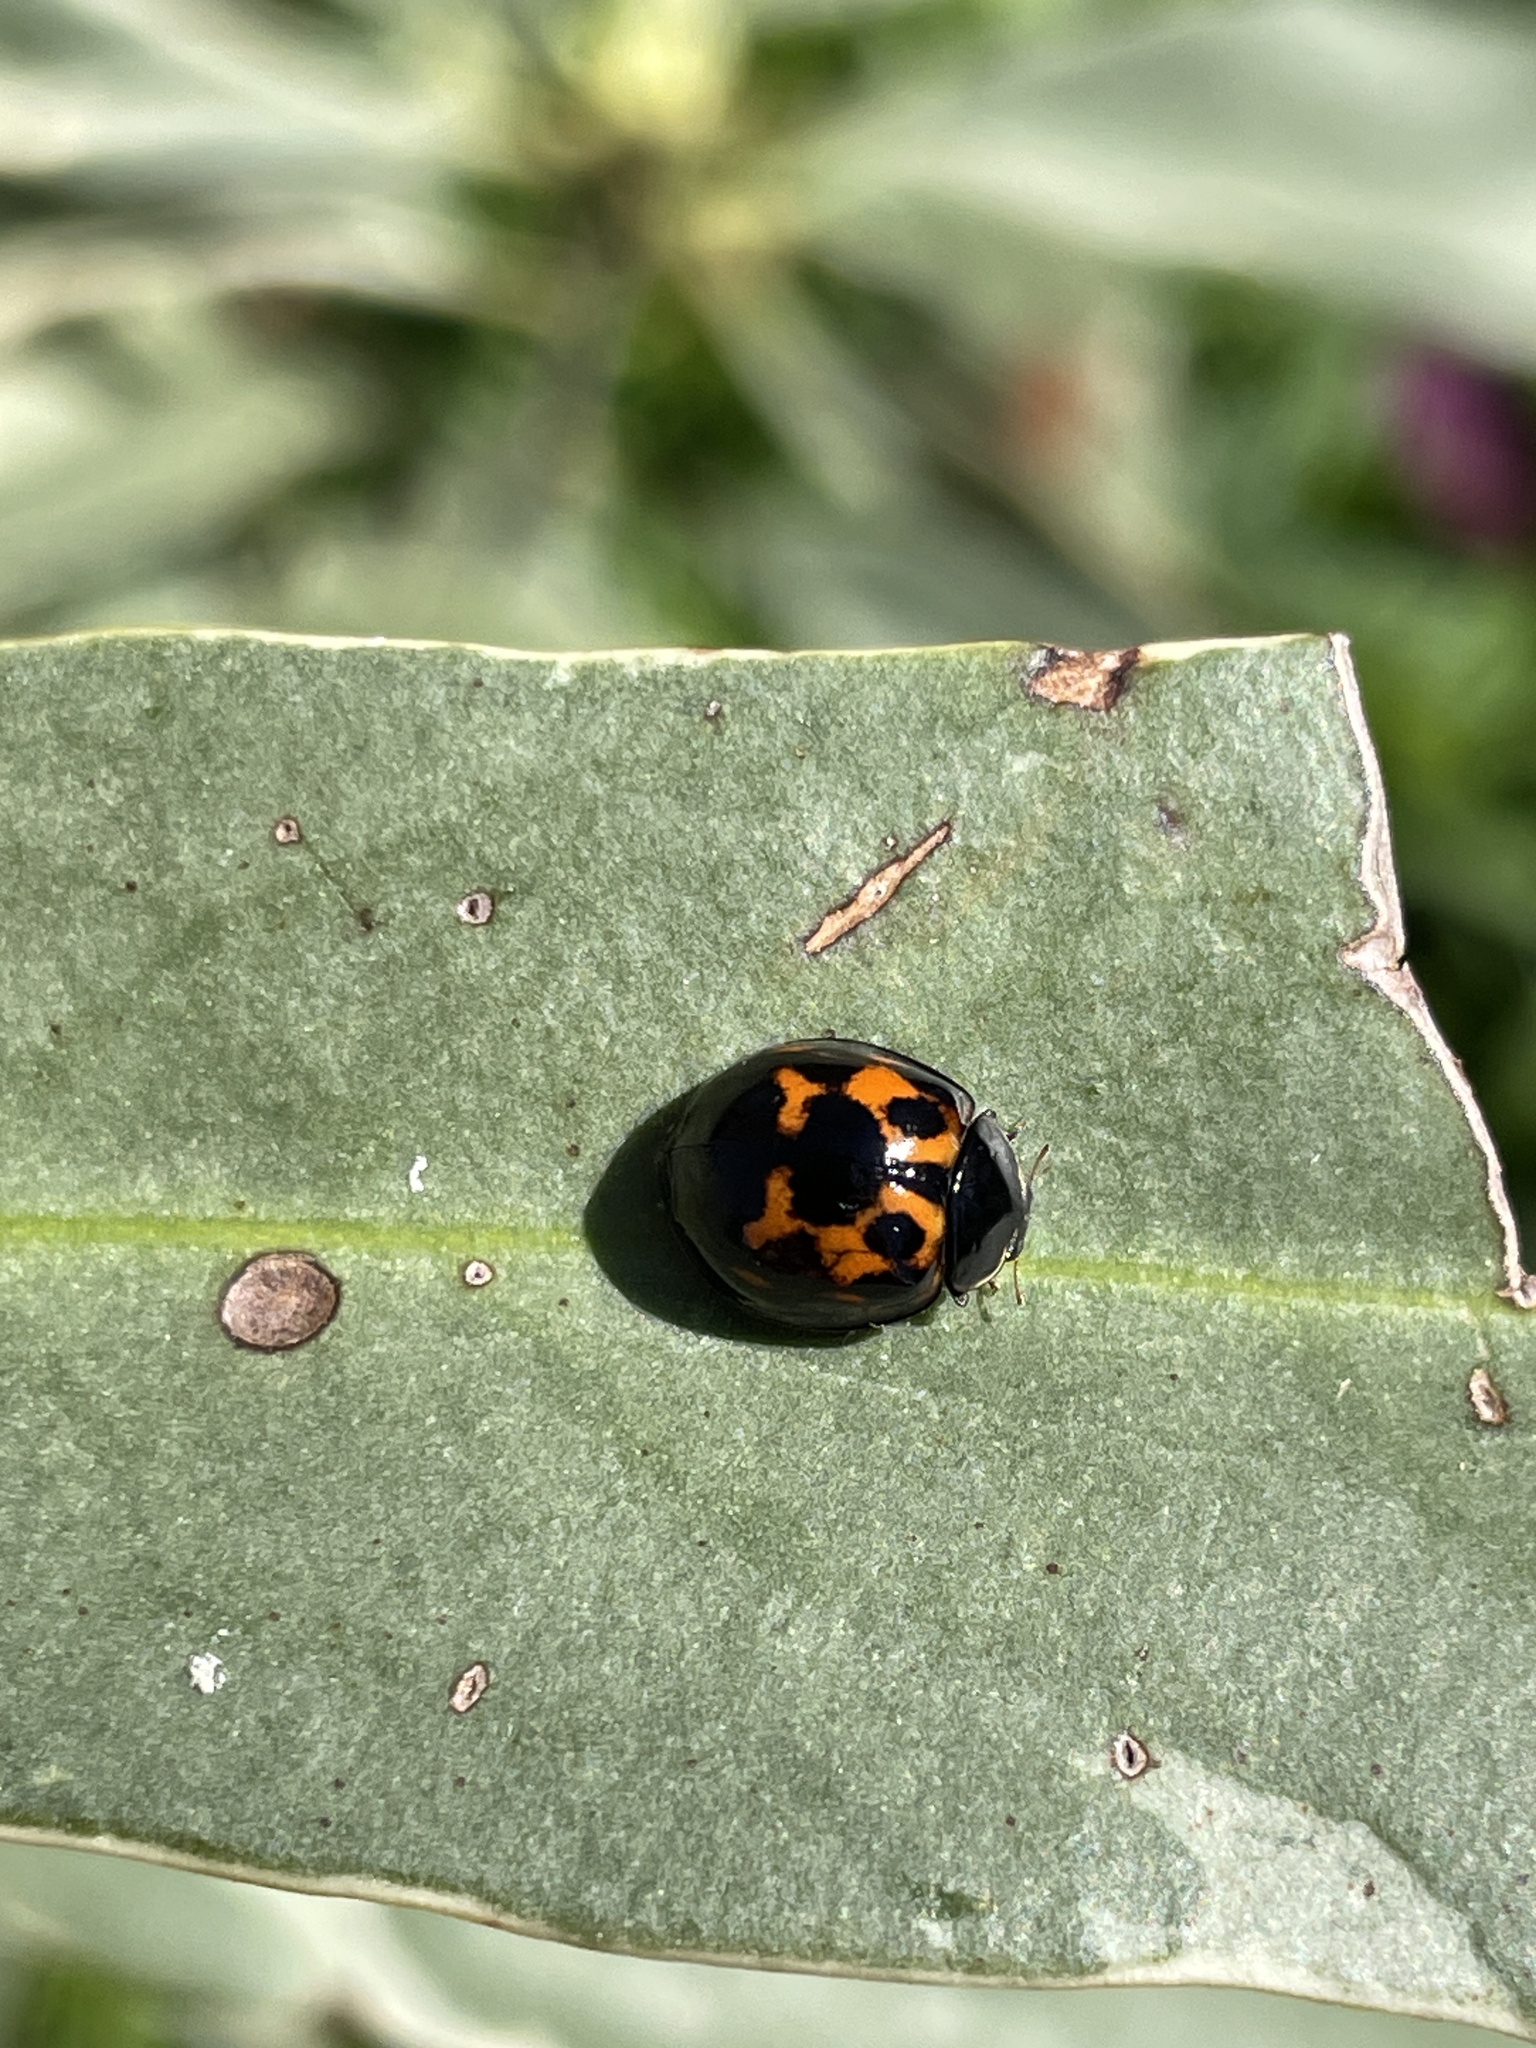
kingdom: Animalia
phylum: Arthropoda
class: Insecta
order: Coleoptera
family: Coccinellidae
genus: Harmonia
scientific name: Harmonia axyridis
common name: Harlequin ladybird
